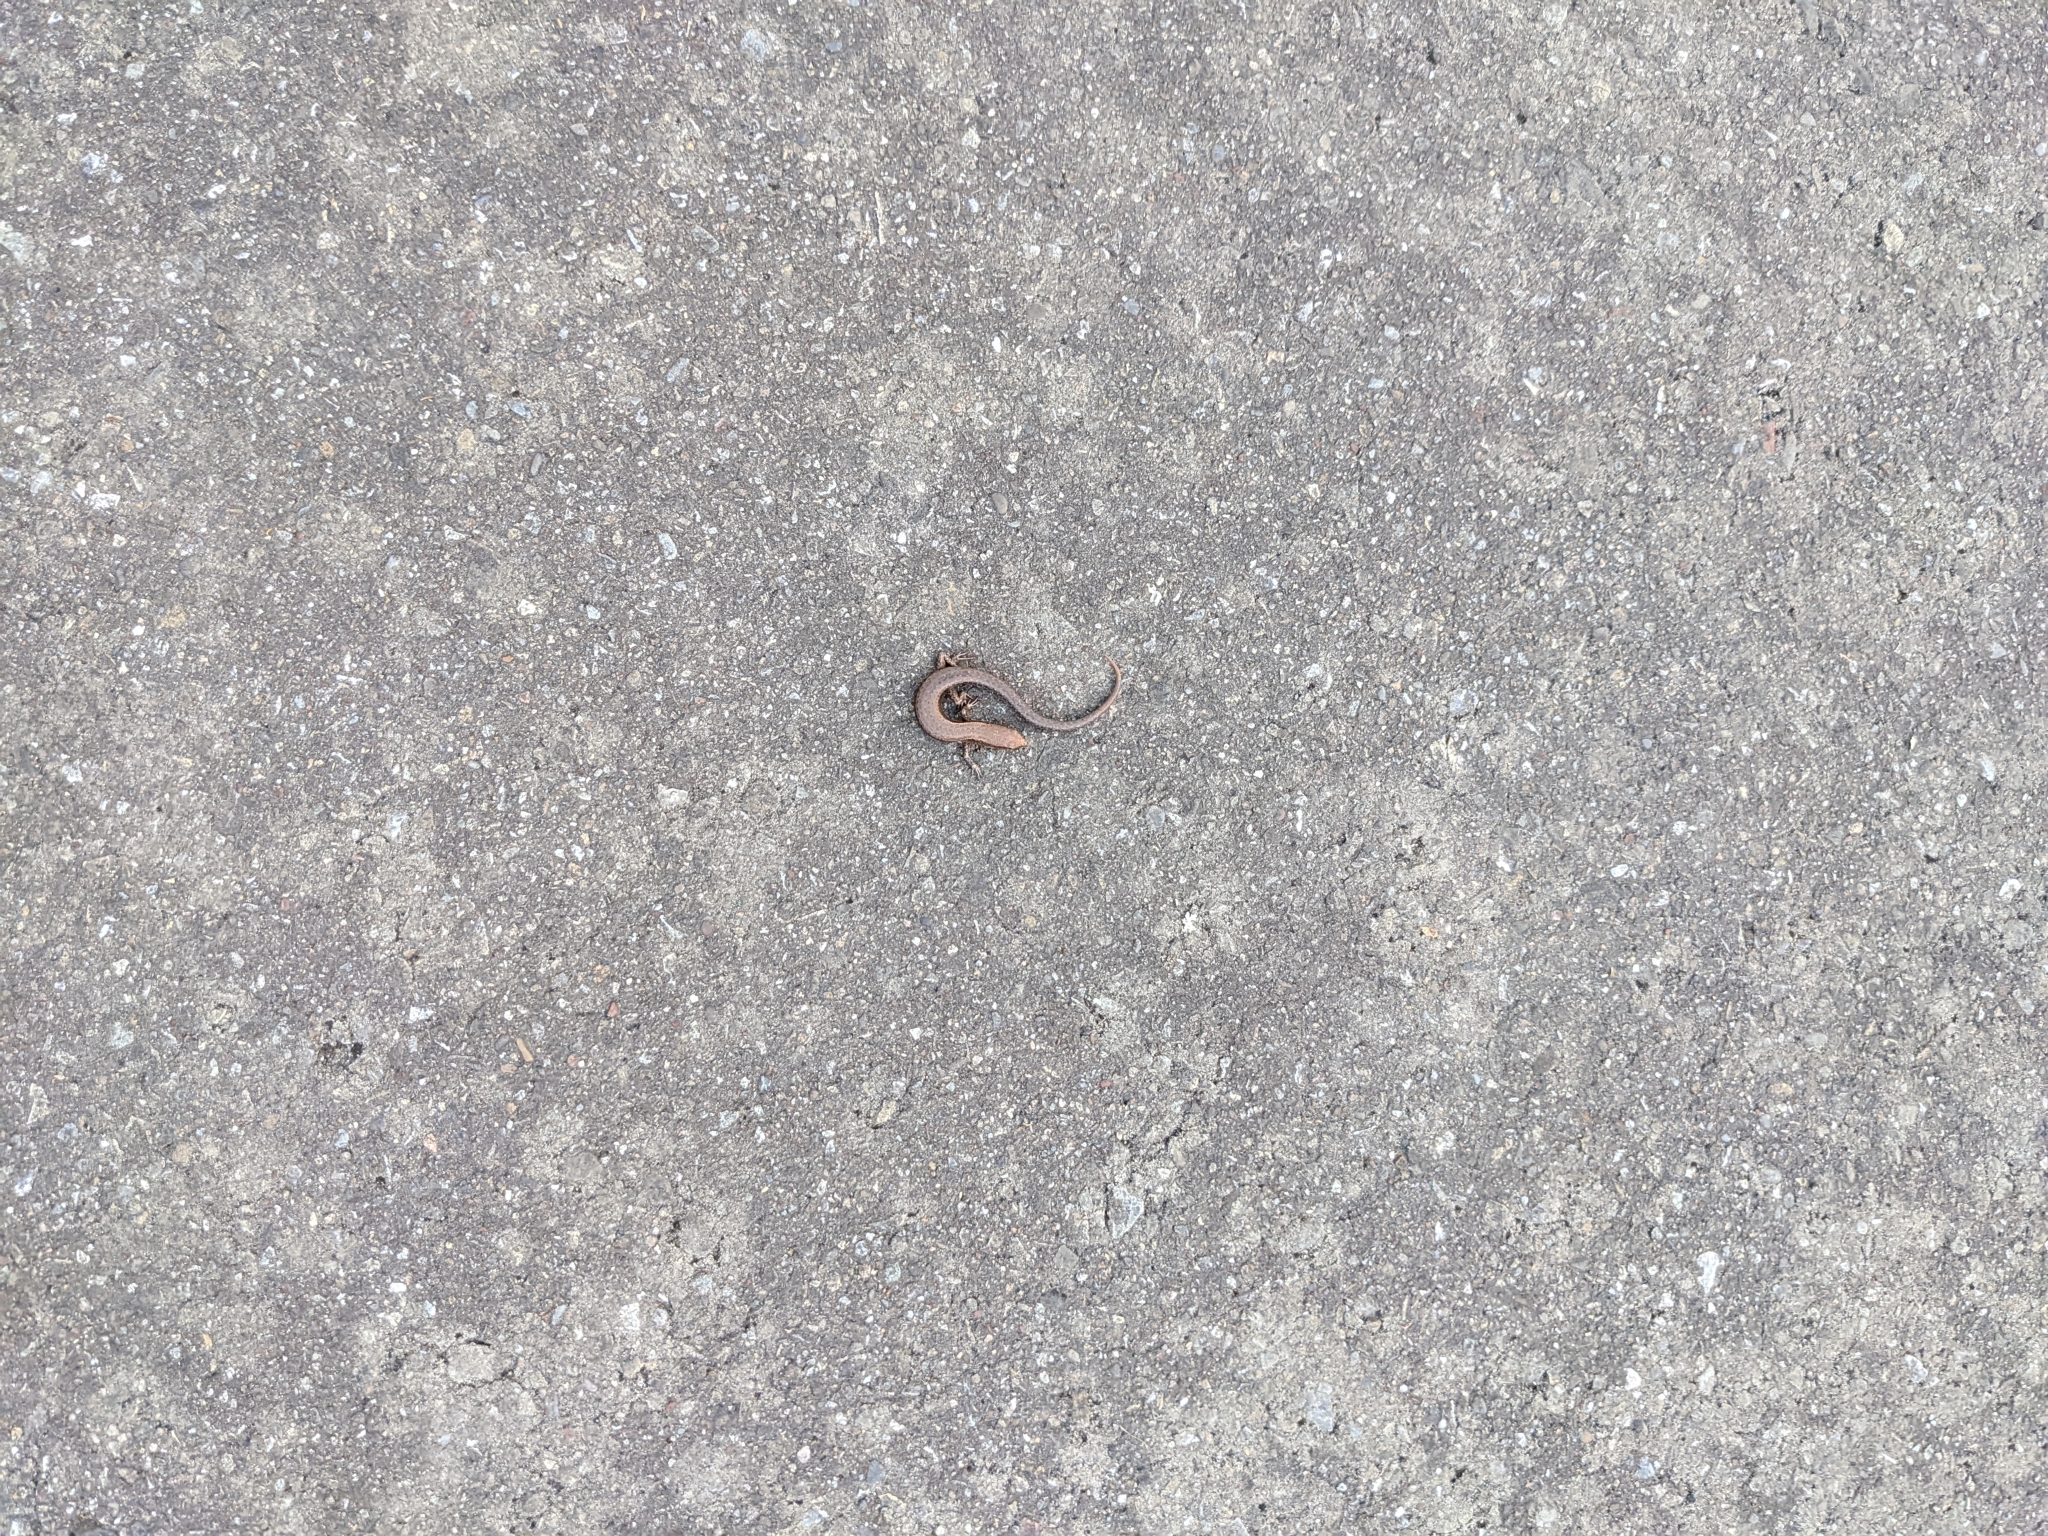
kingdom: Animalia
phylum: Chordata
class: Squamata
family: Scincidae
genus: Lampropholis
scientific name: Lampropholis delicata
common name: Plague skink
